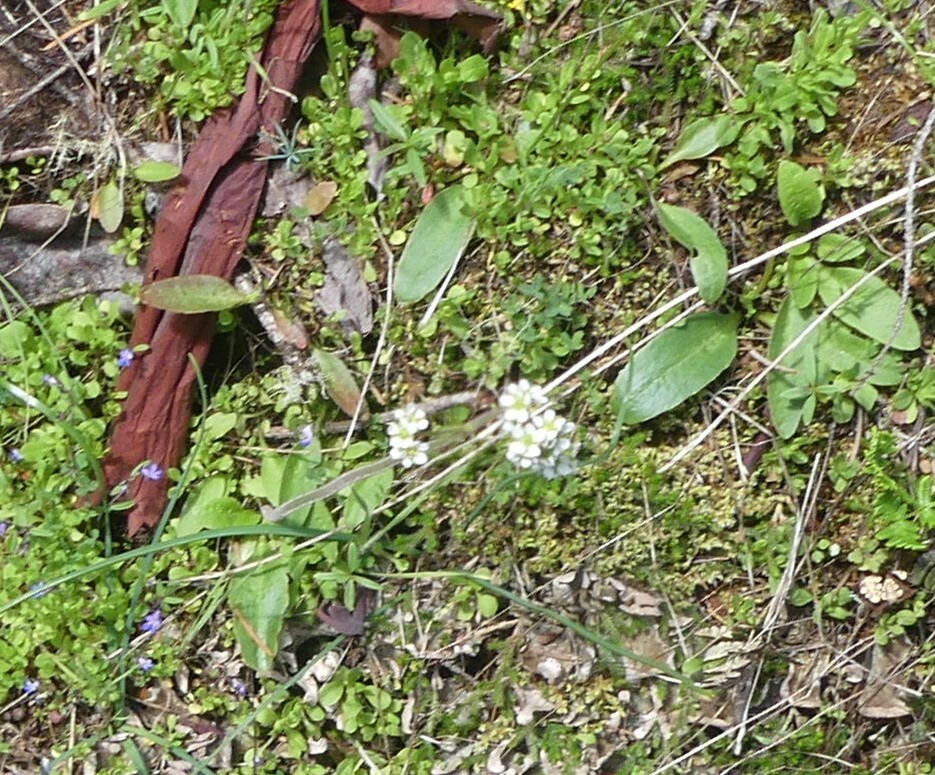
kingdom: Plantae
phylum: Tracheophyta
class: Magnoliopsida
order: Saxifragales
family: Saxifragaceae
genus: Micranthes
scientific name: Micranthes integrifolia
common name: Wholeleaf saxifrage
